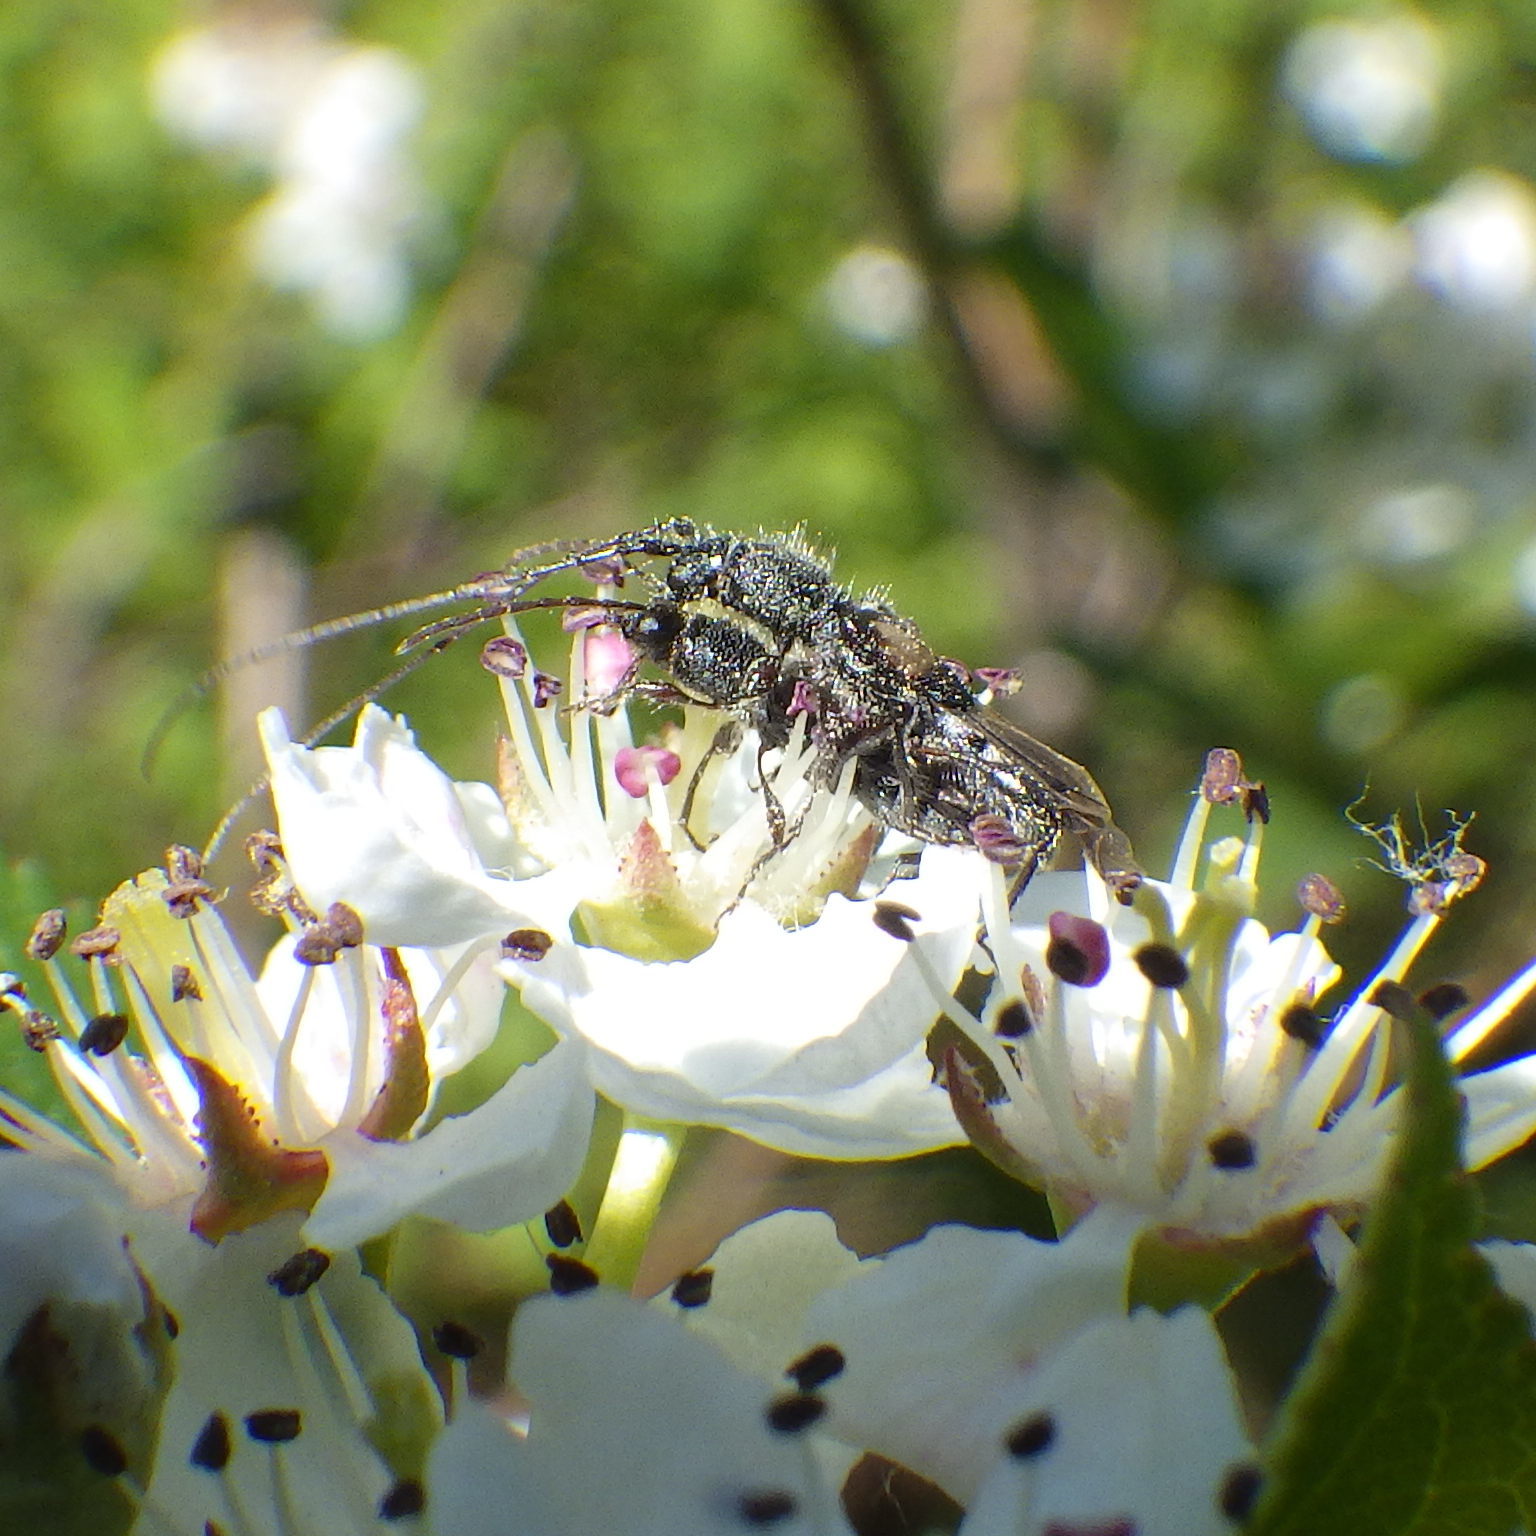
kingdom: Animalia
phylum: Arthropoda
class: Insecta
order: Coleoptera
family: Cerambycidae
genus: Molorchus
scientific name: Molorchus bimaculatus
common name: Bimaculate longhorn beetle
